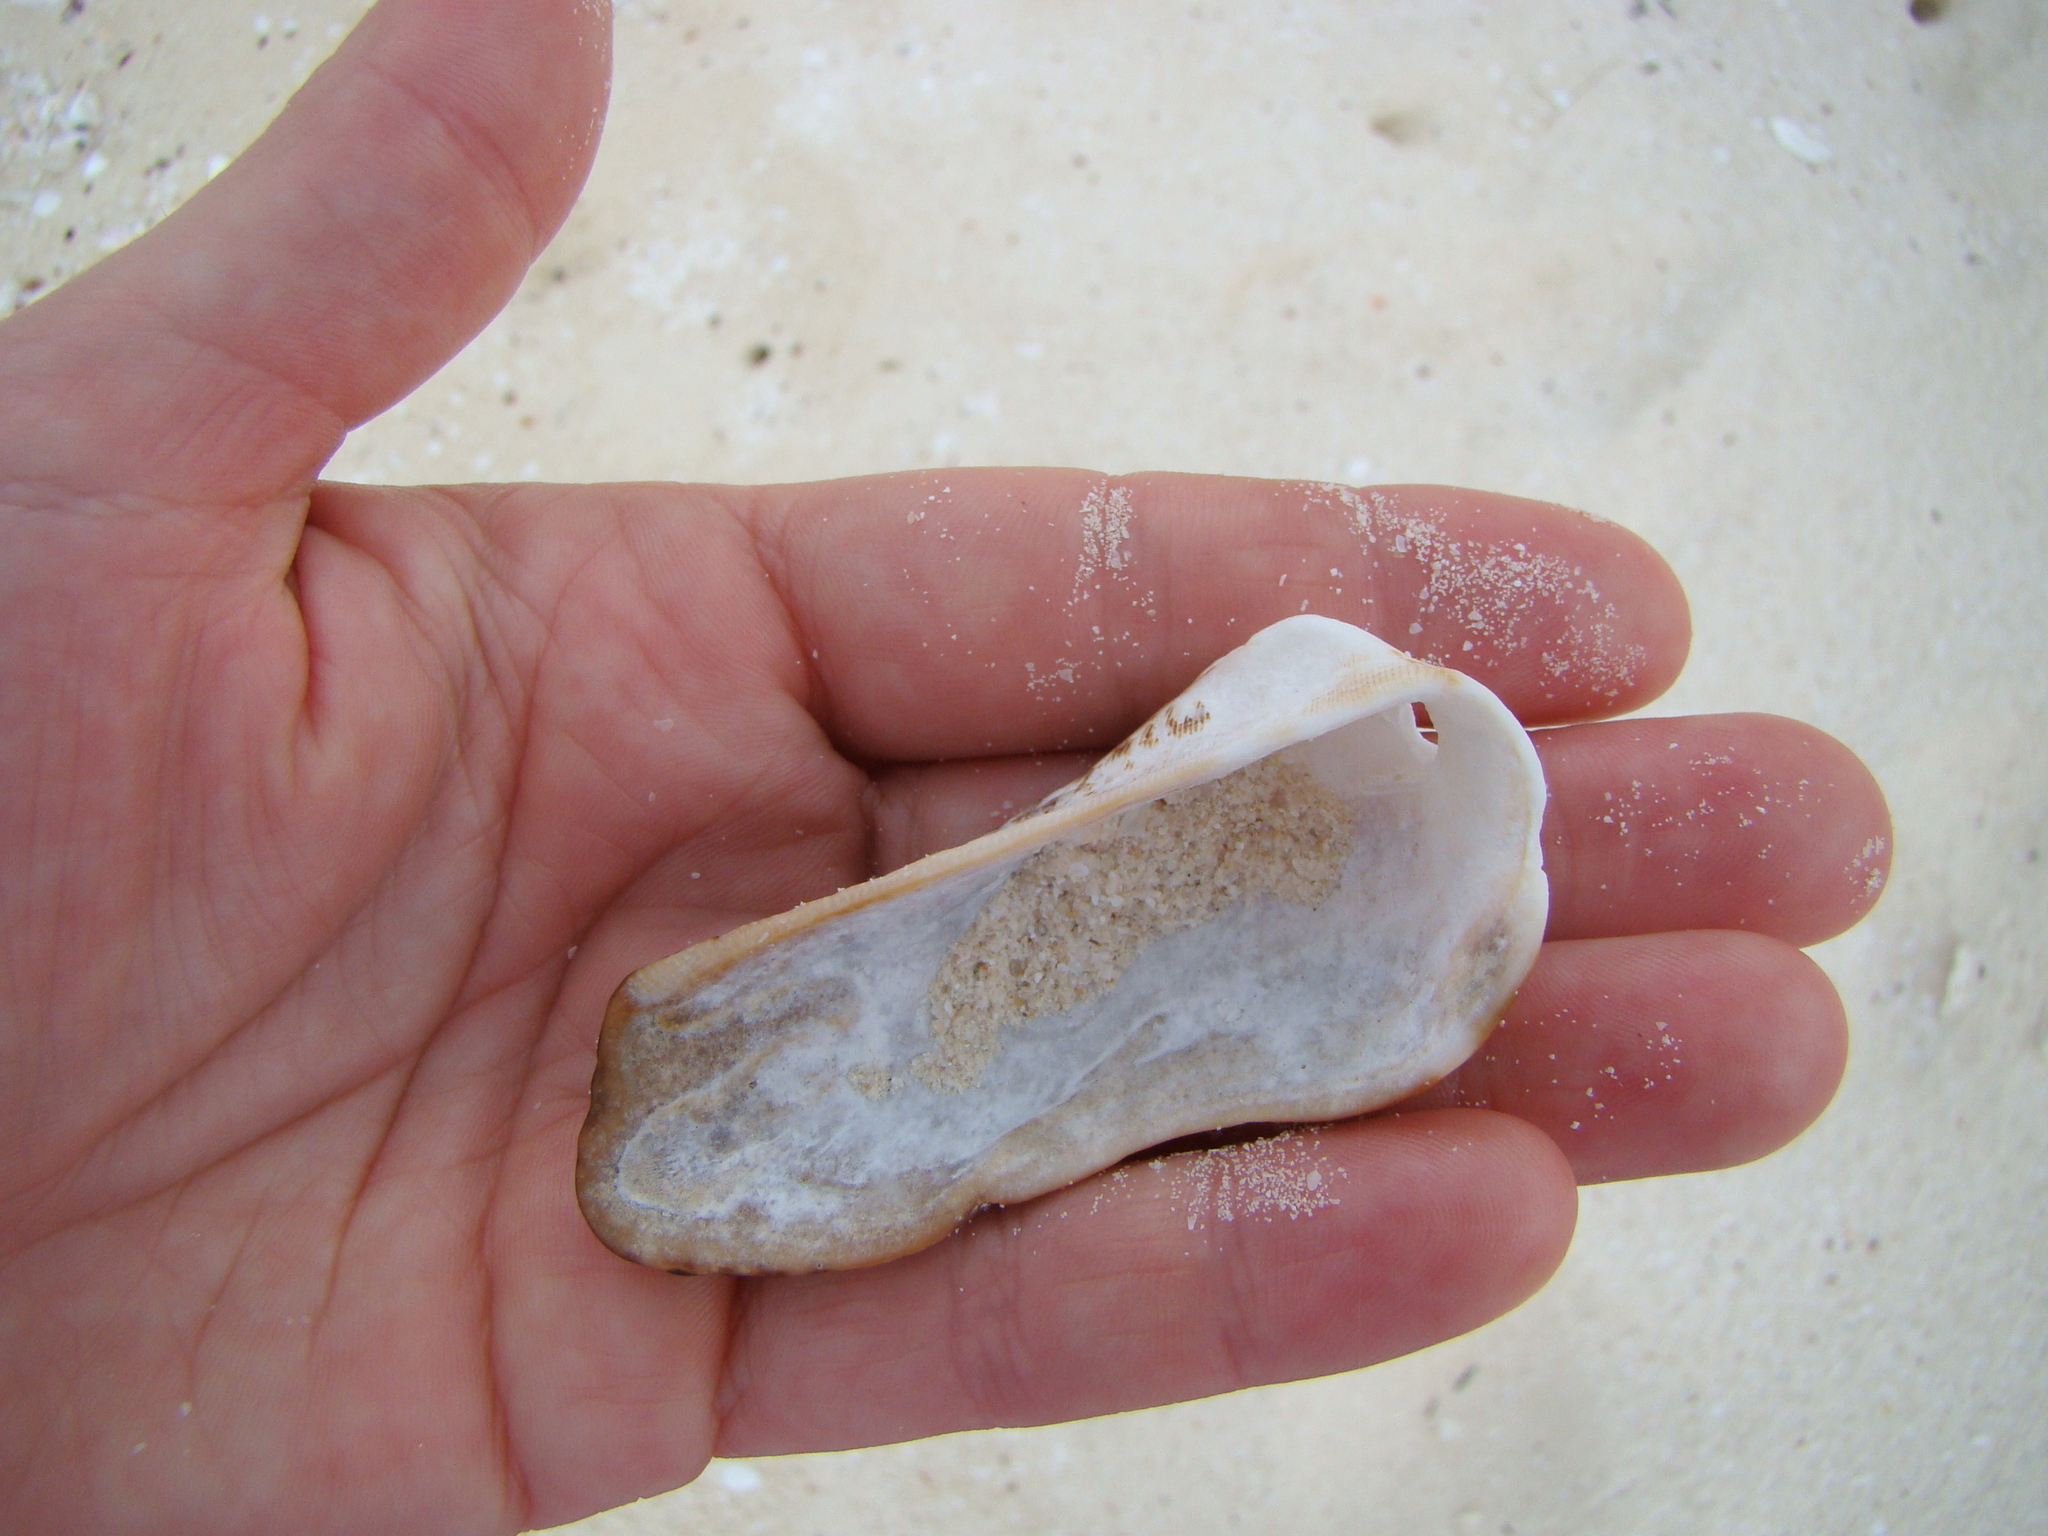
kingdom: Animalia
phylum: Mollusca
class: Bivalvia
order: Arcida
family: Arcidae
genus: Lamarcka
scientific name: Lamarcka ventricosa
